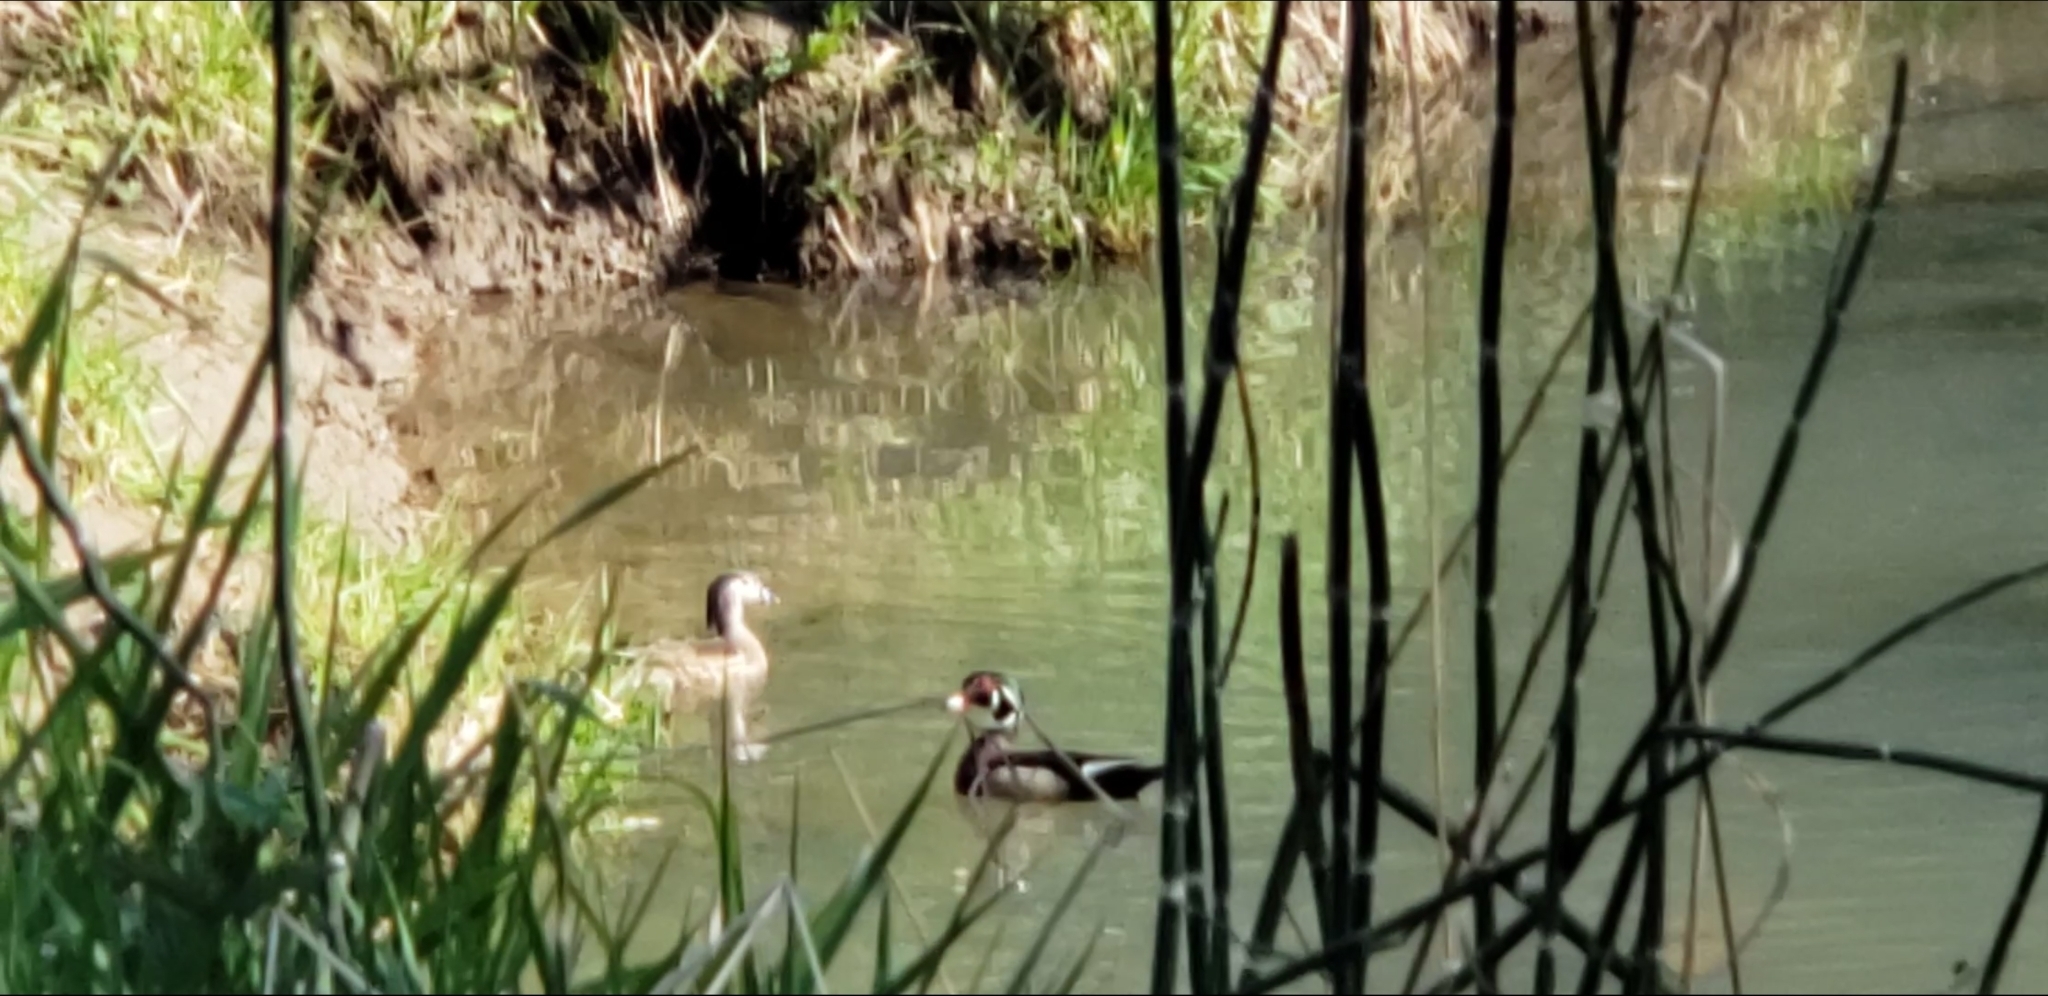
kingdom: Animalia
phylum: Chordata
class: Aves
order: Anseriformes
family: Anatidae
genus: Aix
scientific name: Aix sponsa
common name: Wood duck
